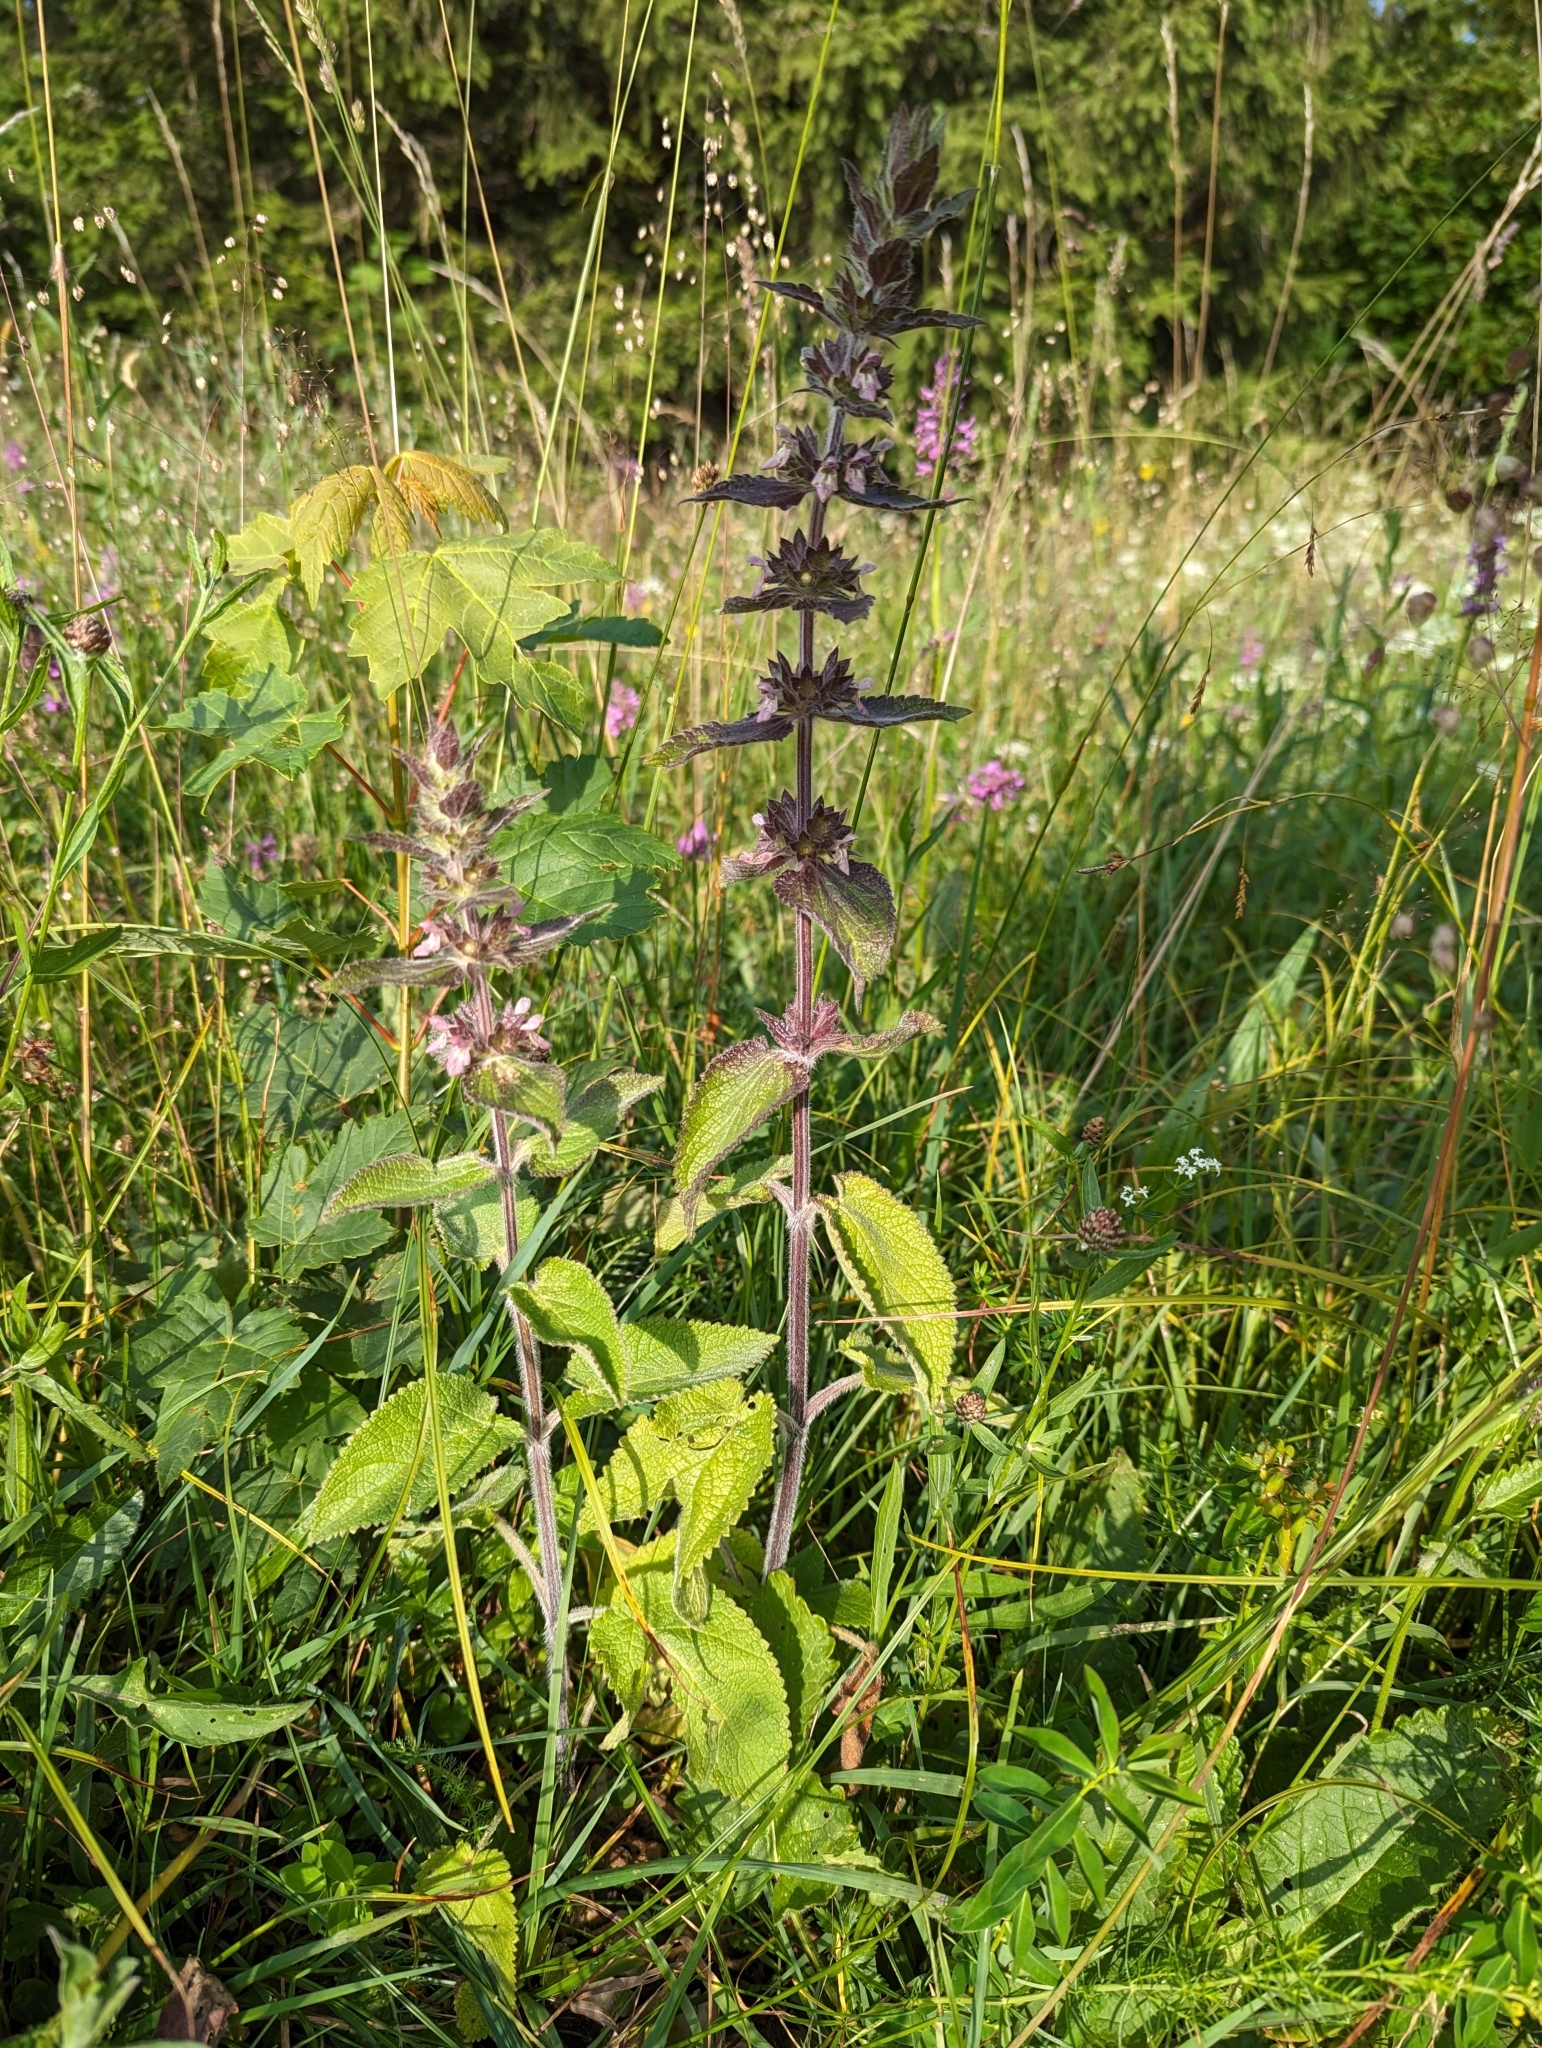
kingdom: Plantae
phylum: Tracheophyta
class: Magnoliopsida
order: Lamiales
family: Lamiaceae
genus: Stachys
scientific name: Stachys alpina
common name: Limestone woundwort
